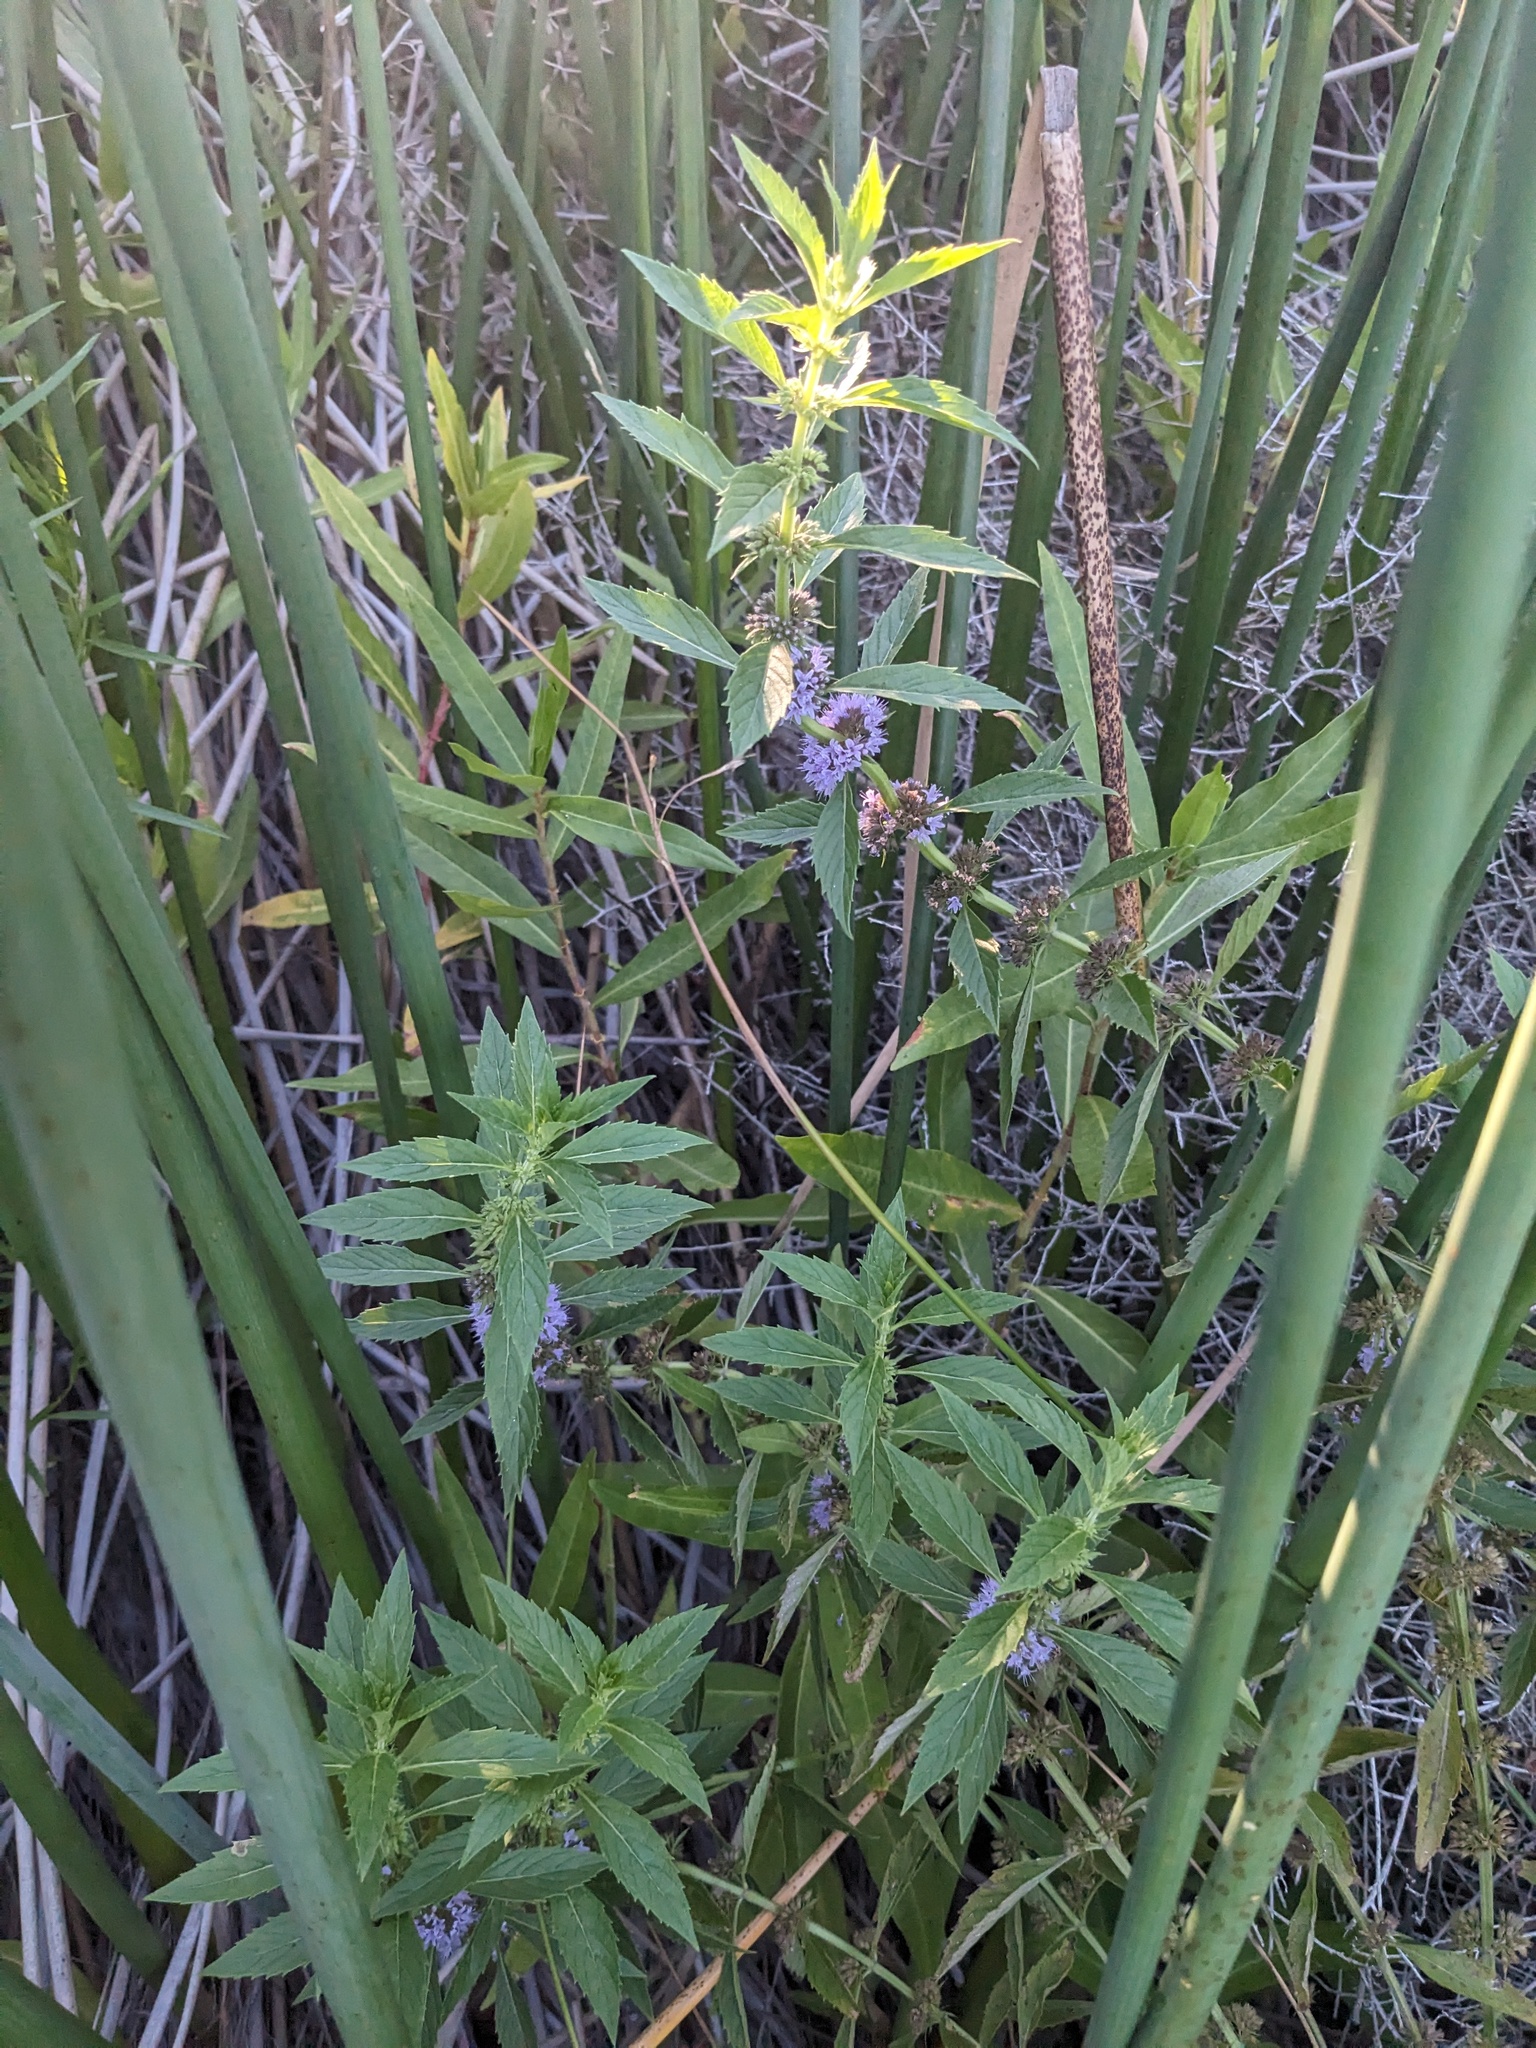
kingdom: Plantae
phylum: Tracheophyta
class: Magnoliopsida
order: Lamiales
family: Lamiaceae
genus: Mentha
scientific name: Mentha canadensis
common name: American corn mint
